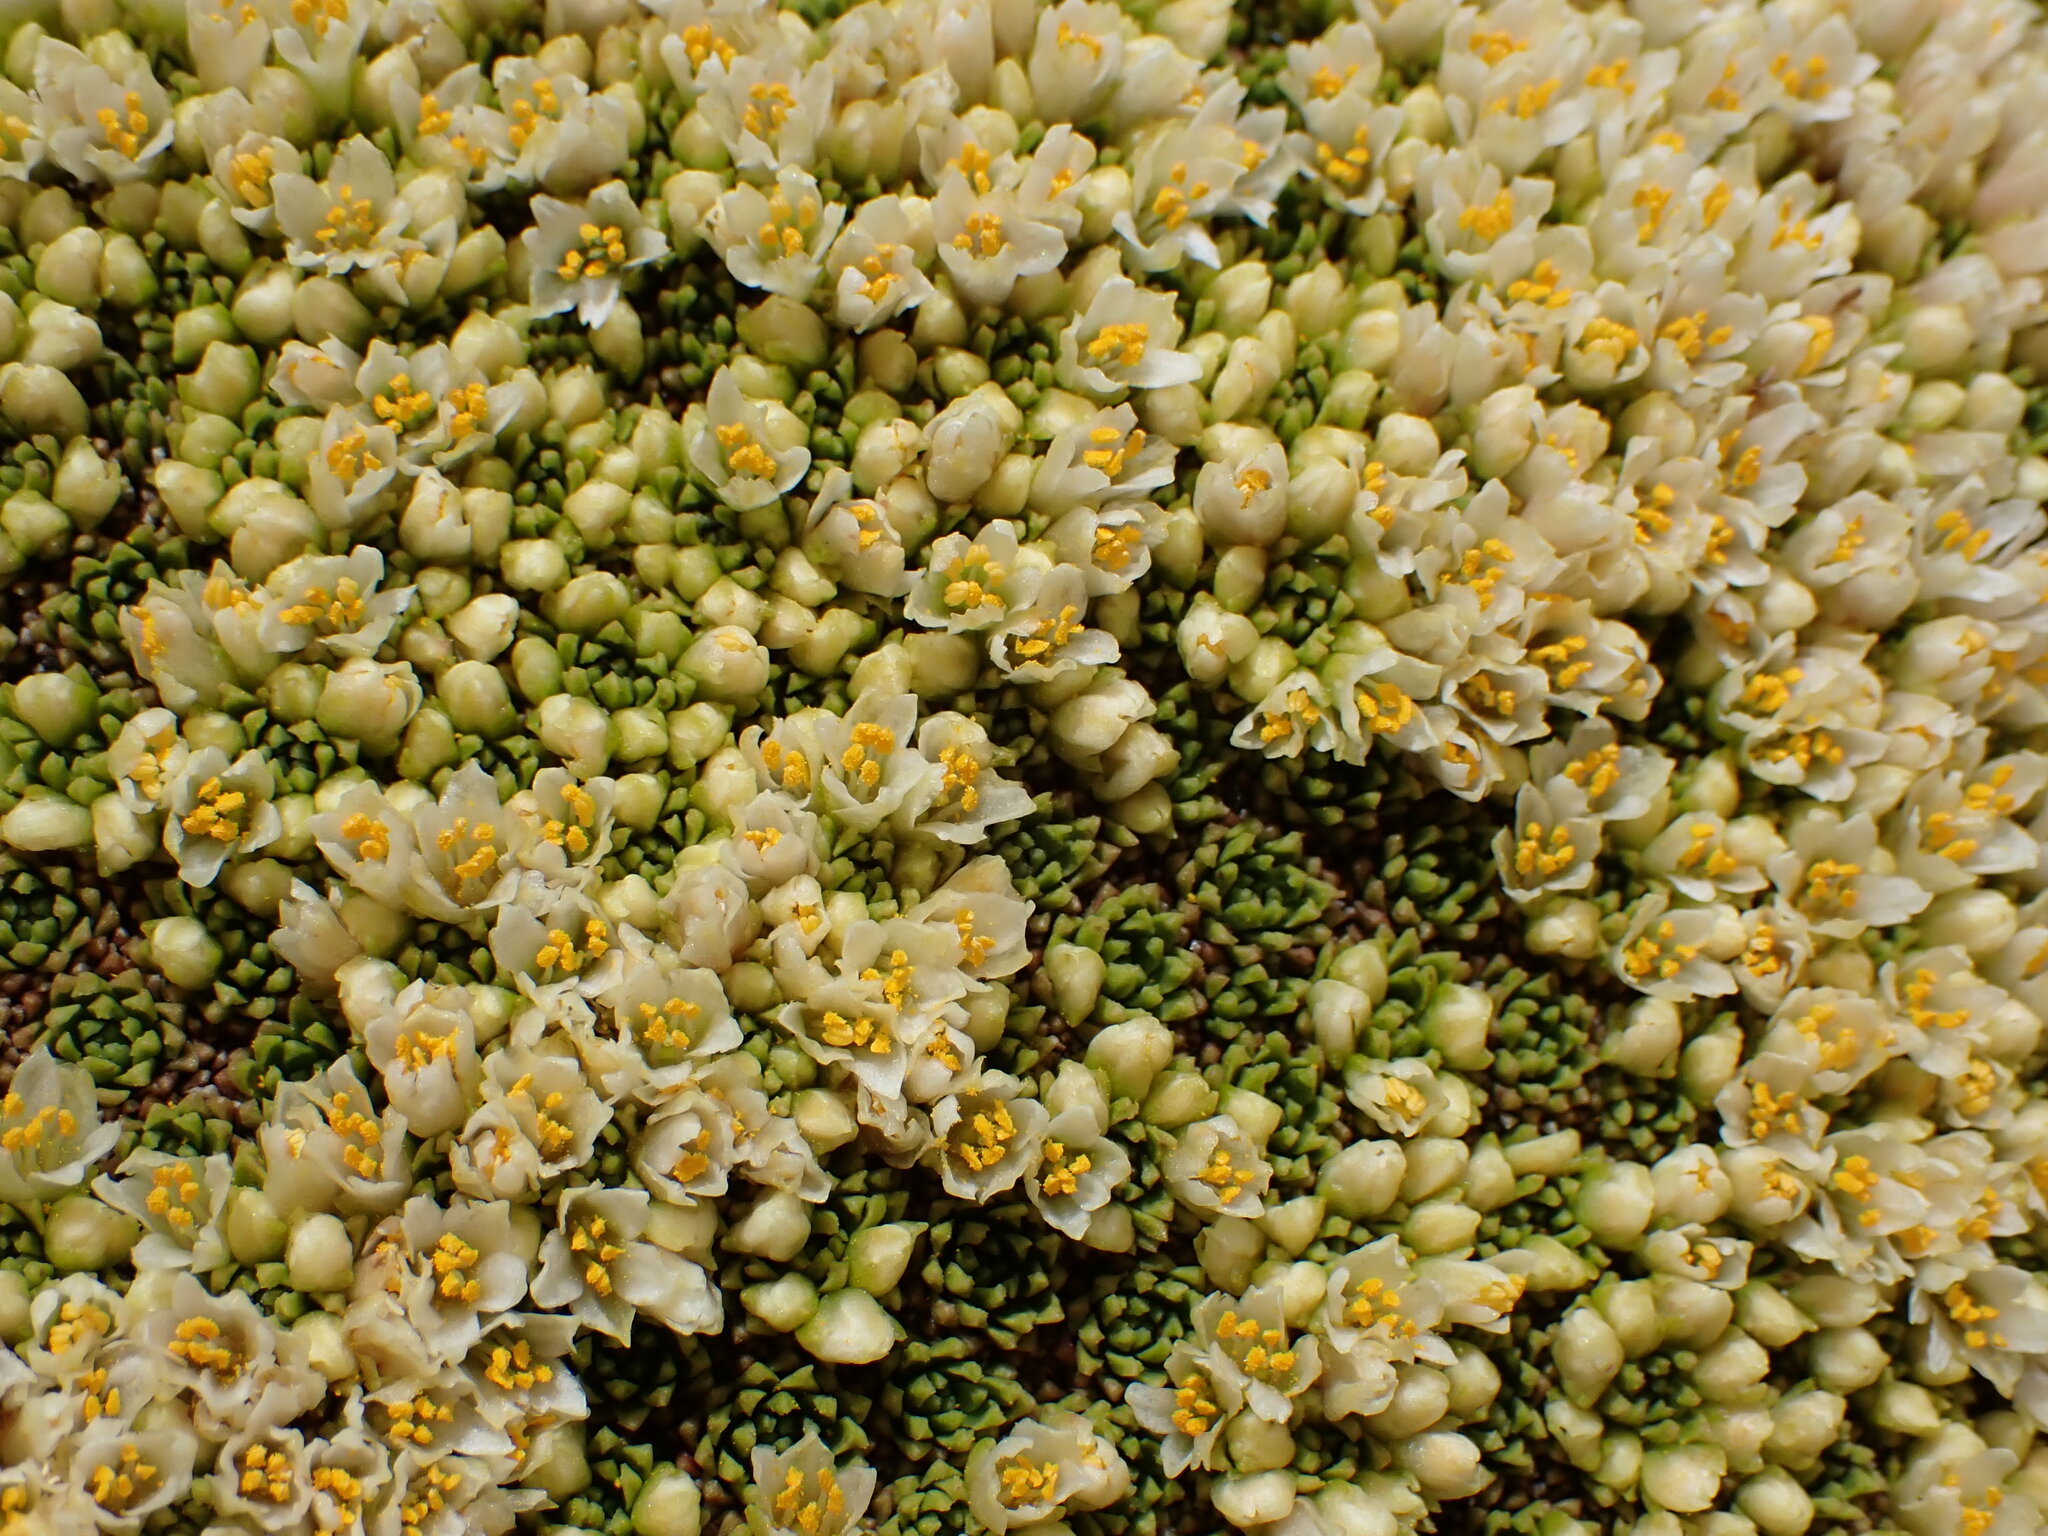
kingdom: Plantae
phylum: Tracheophyta
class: Magnoliopsida
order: Caryophyllales
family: Montiaceae
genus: Hectorella
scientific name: Hectorella caespitosa
